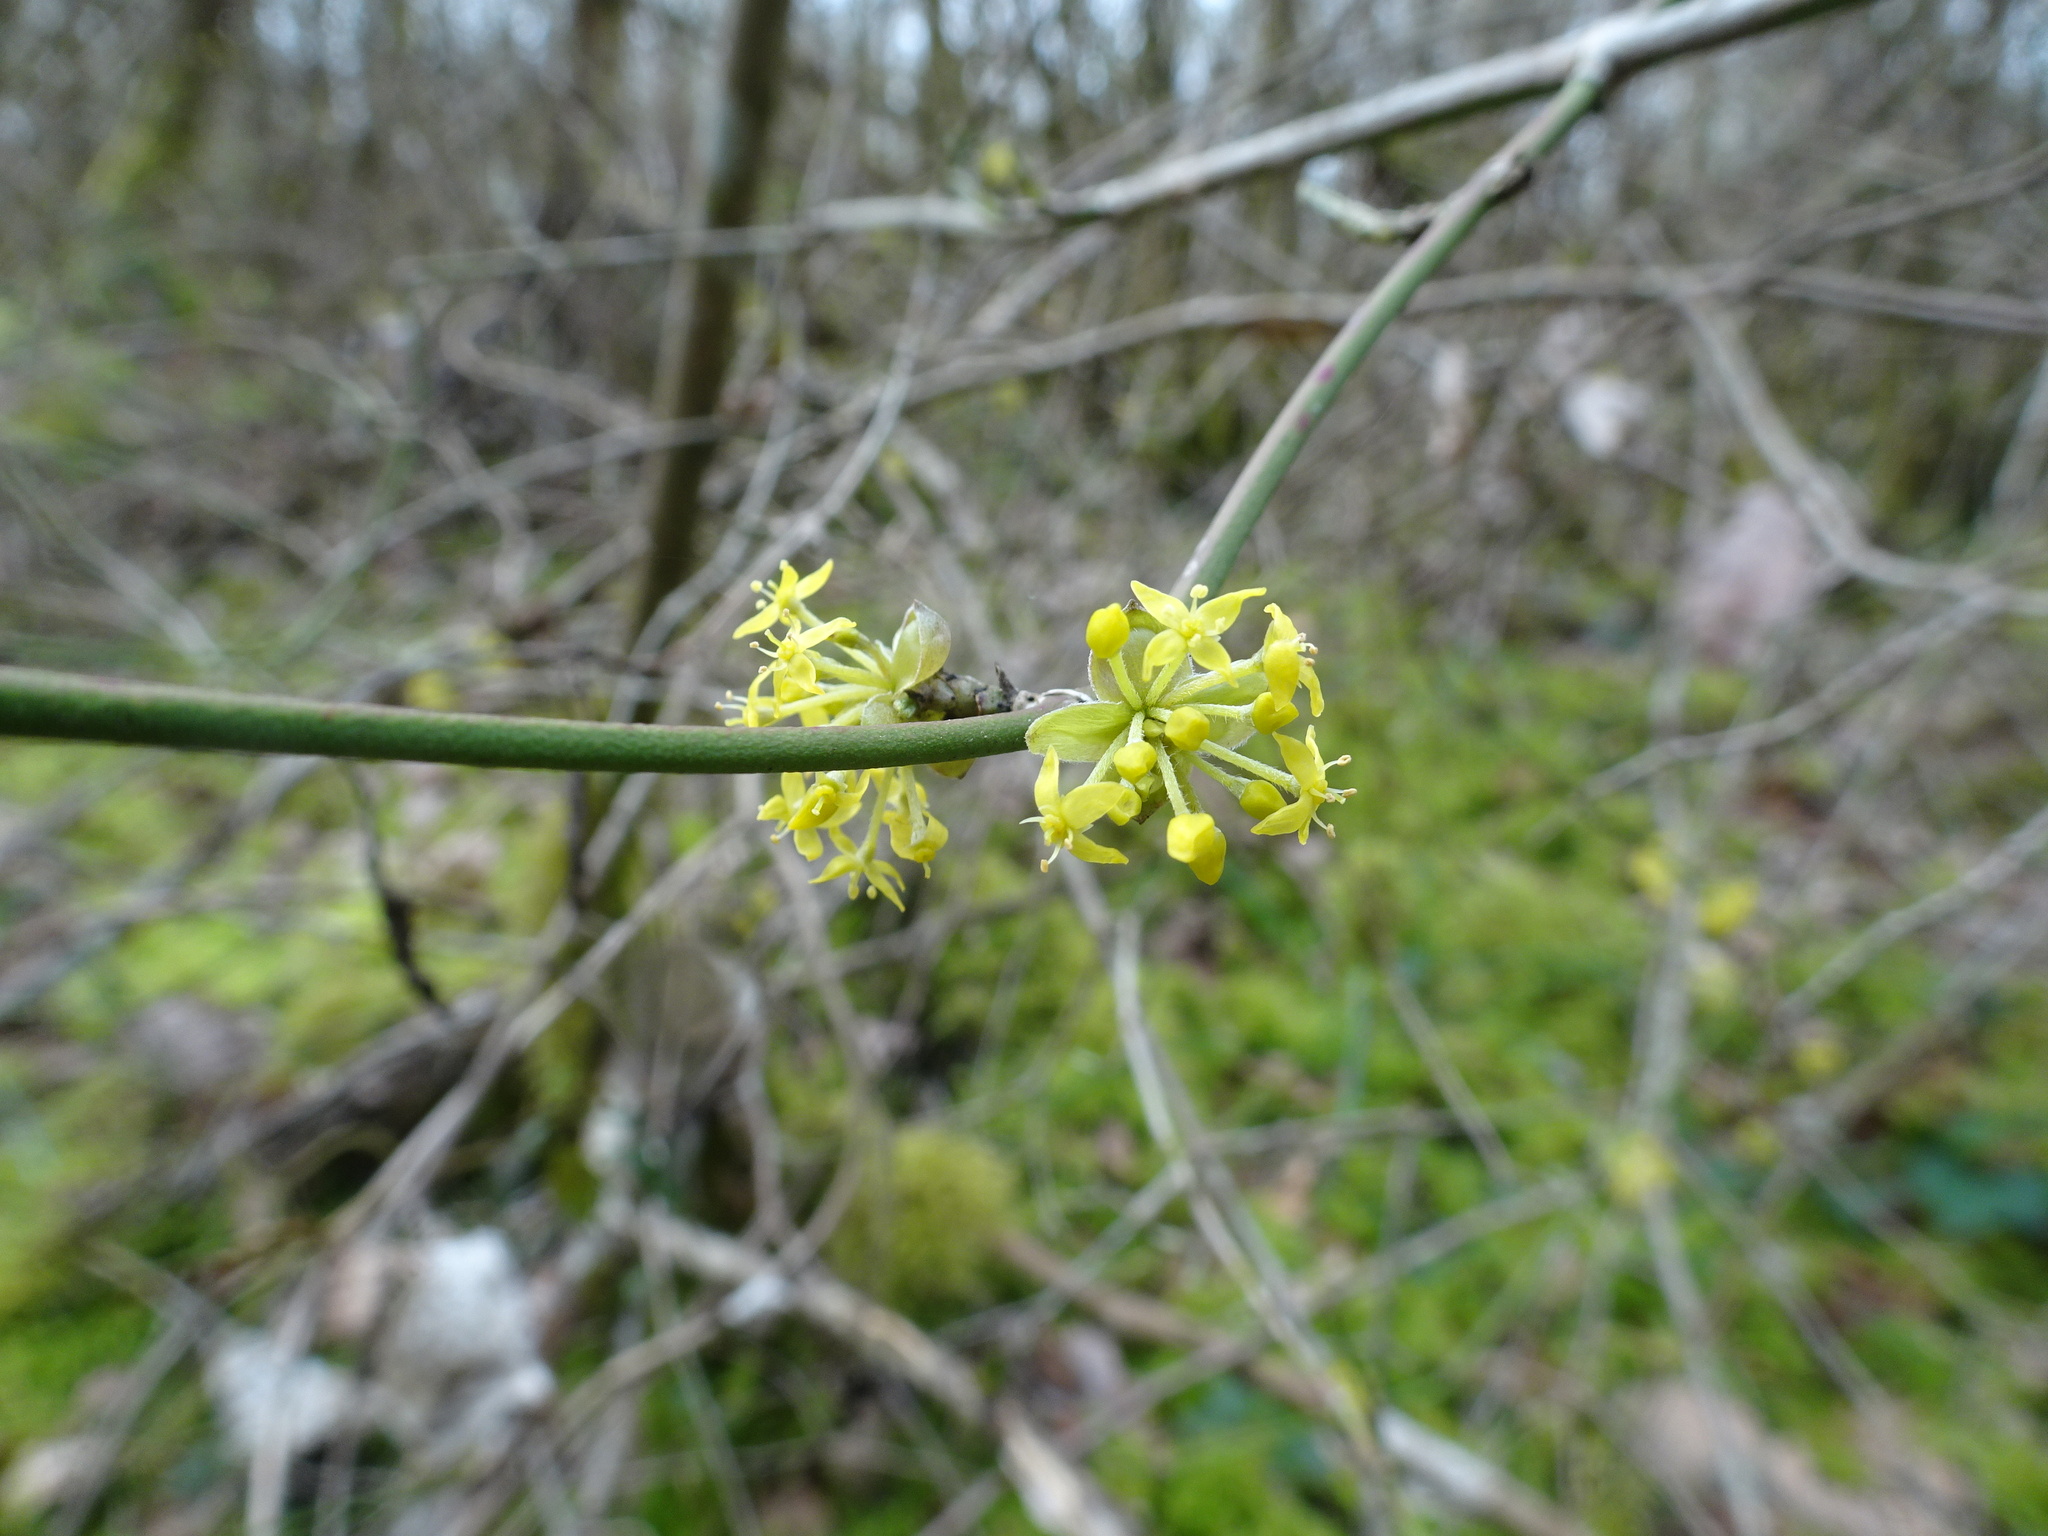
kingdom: Plantae
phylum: Tracheophyta
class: Magnoliopsida
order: Cornales
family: Cornaceae
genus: Cornus
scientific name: Cornus mas
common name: Cornelian-cherry
